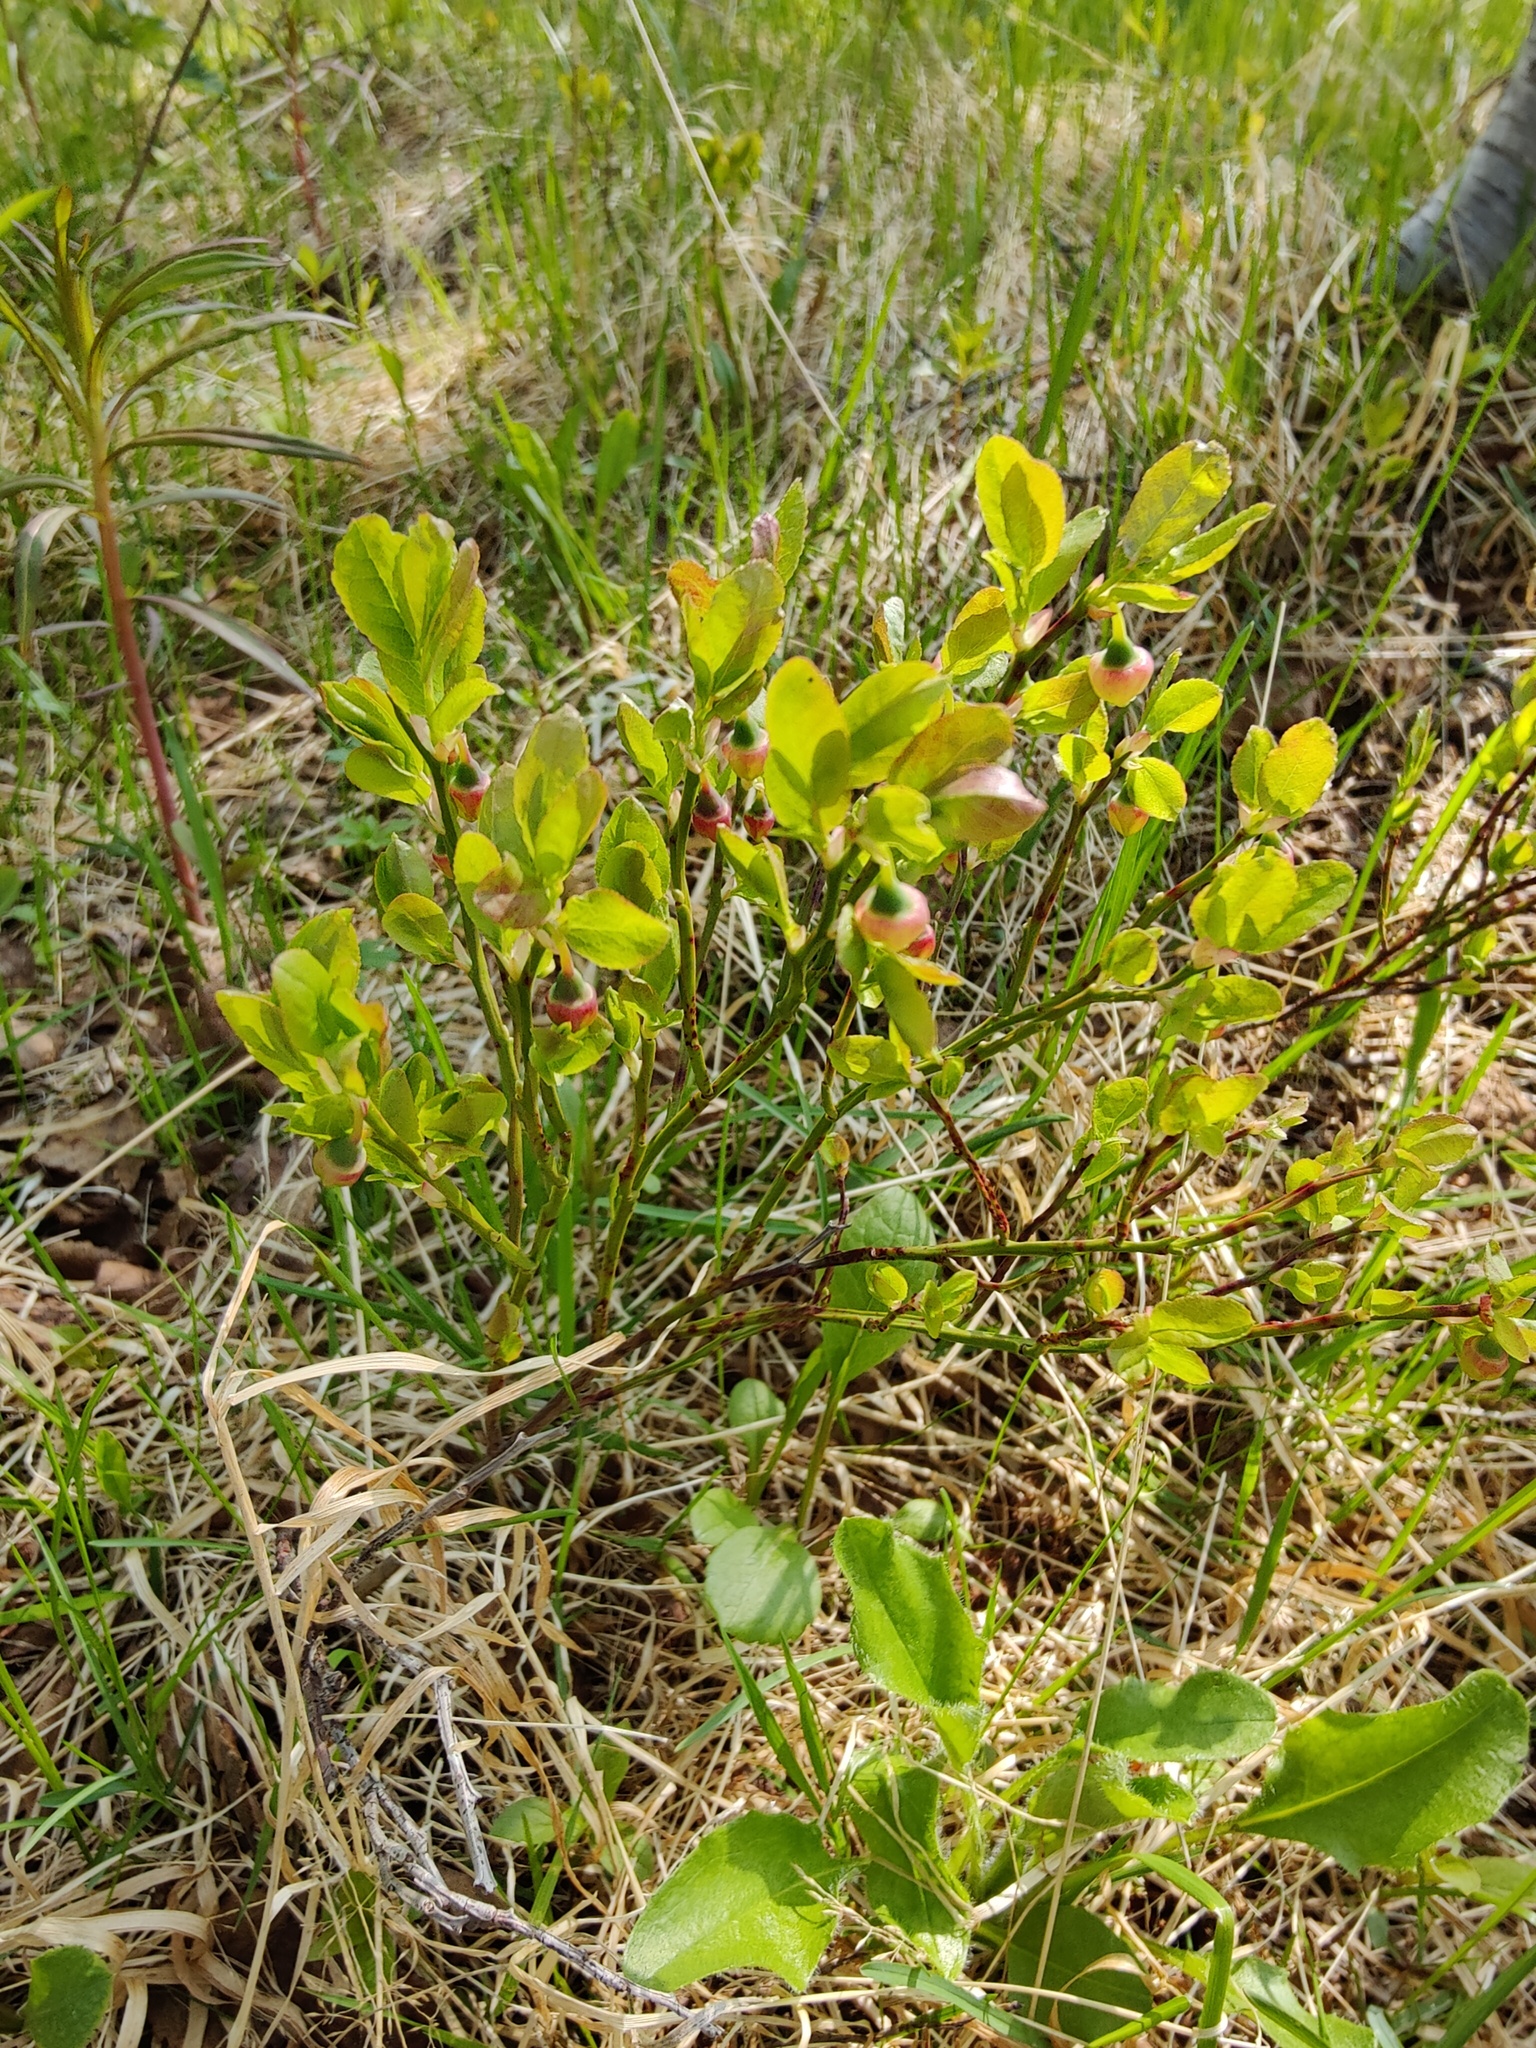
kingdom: Plantae
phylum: Tracheophyta
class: Magnoliopsida
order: Ericales
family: Ericaceae
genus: Vaccinium
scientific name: Vaccinium myrtillus
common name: Bilberry
